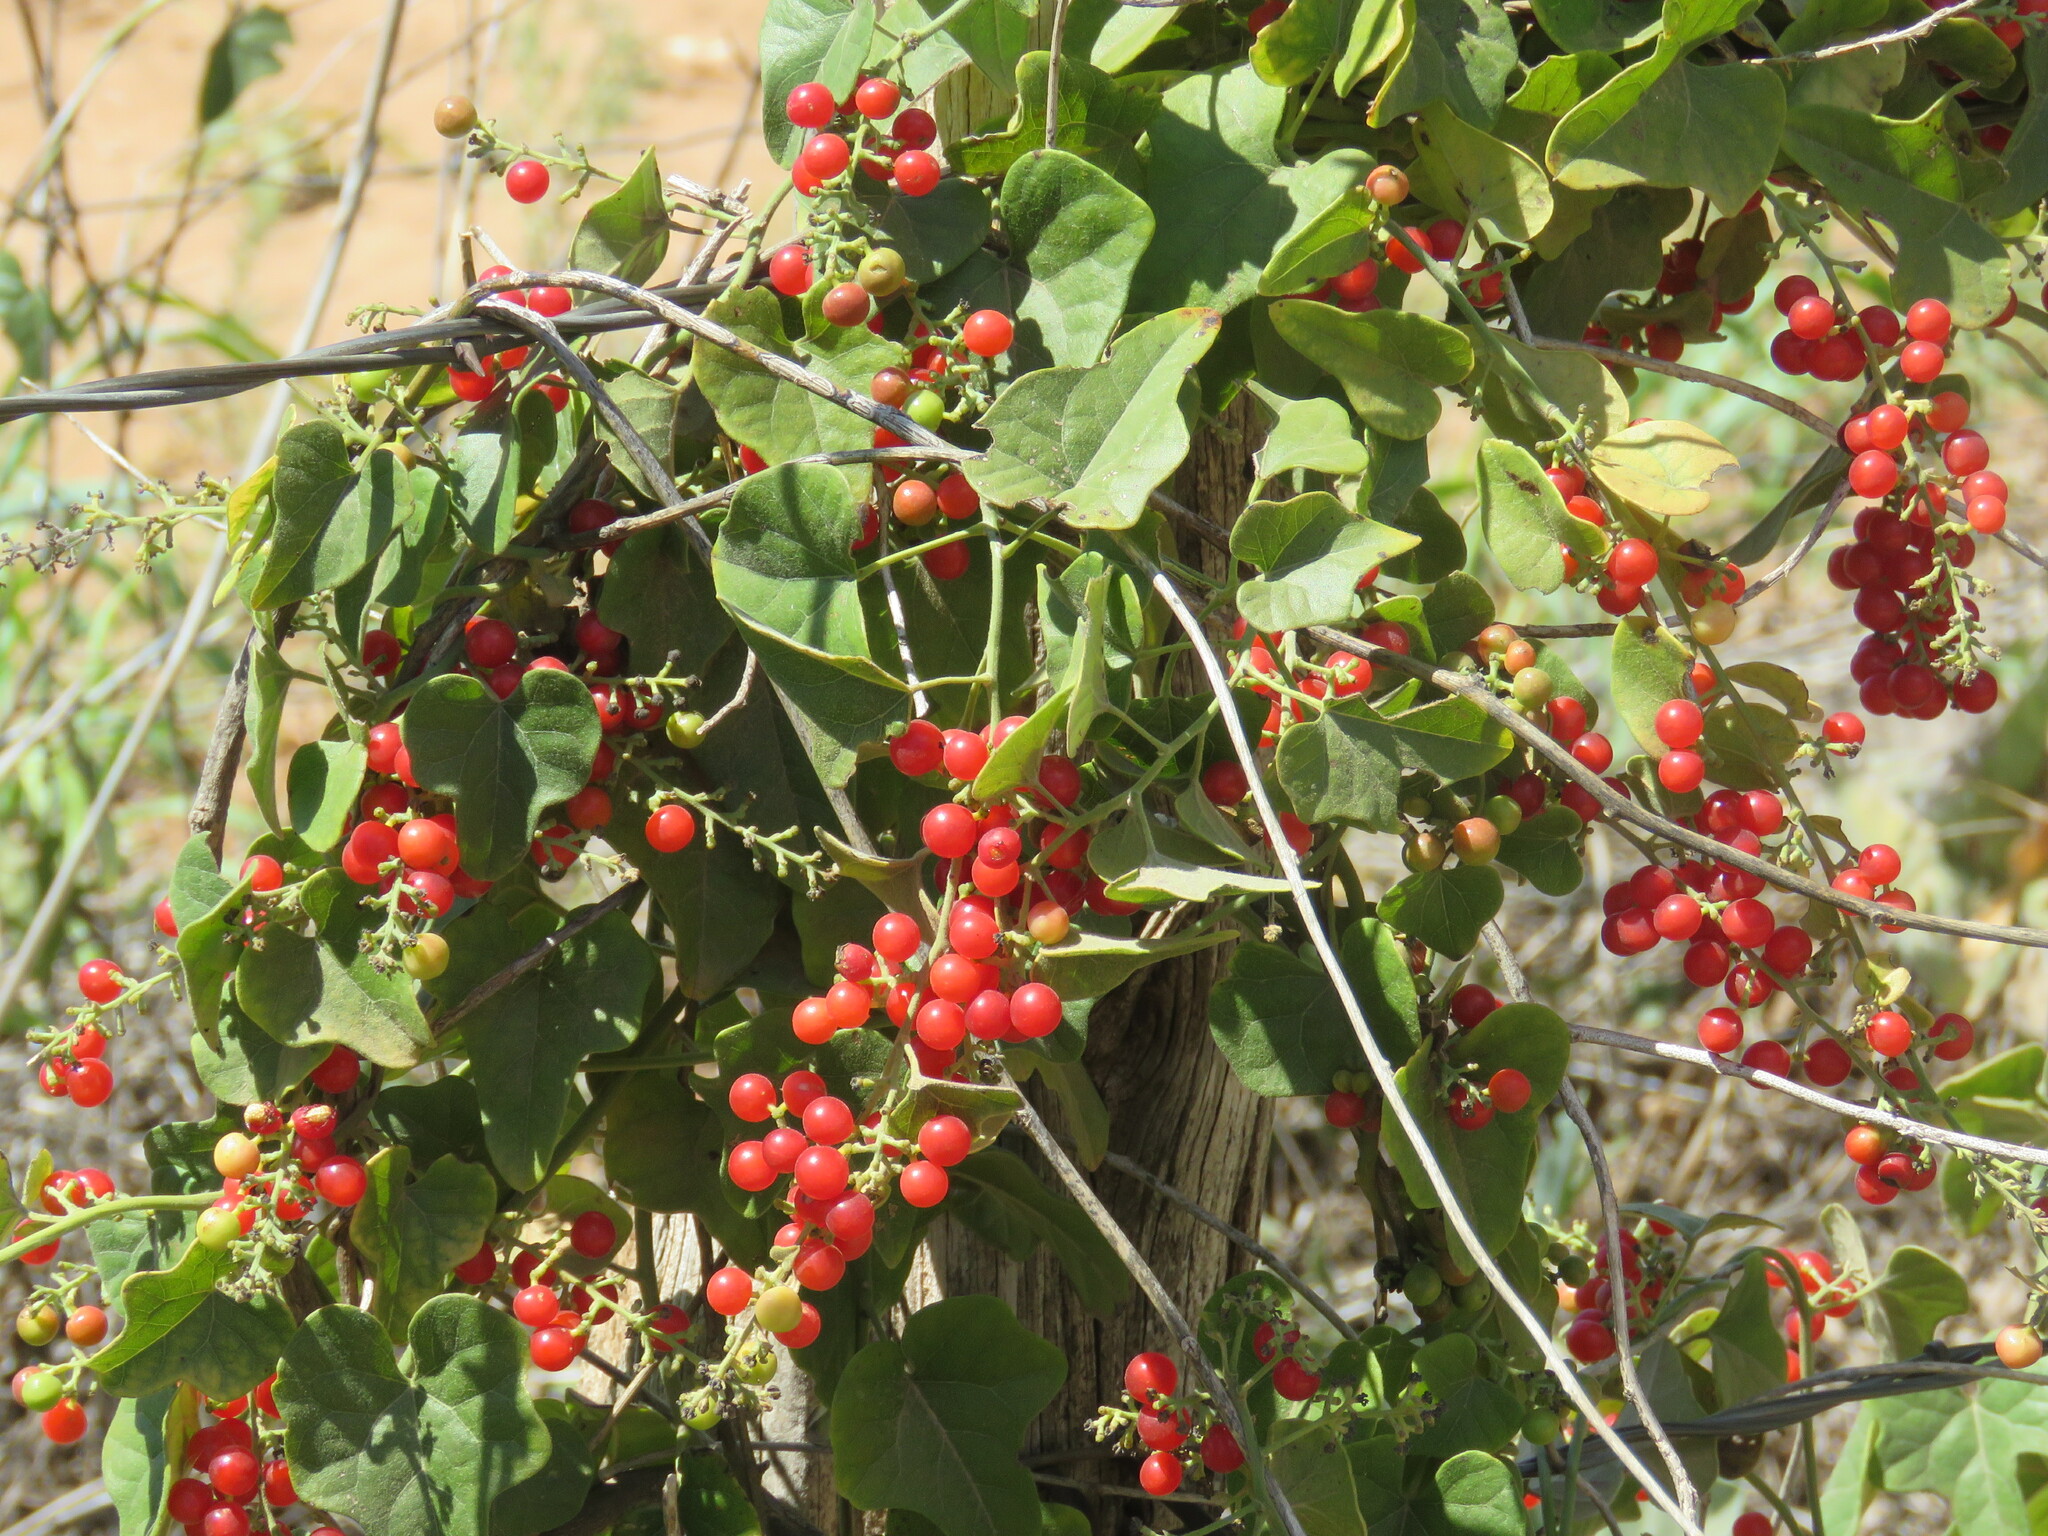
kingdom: Plantae
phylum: Tracheophyta
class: Magnoliopsida
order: Ranunculales
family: Menispermaceae
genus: Cocculus
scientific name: Cocculus carolinus
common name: Carolina moonseed
